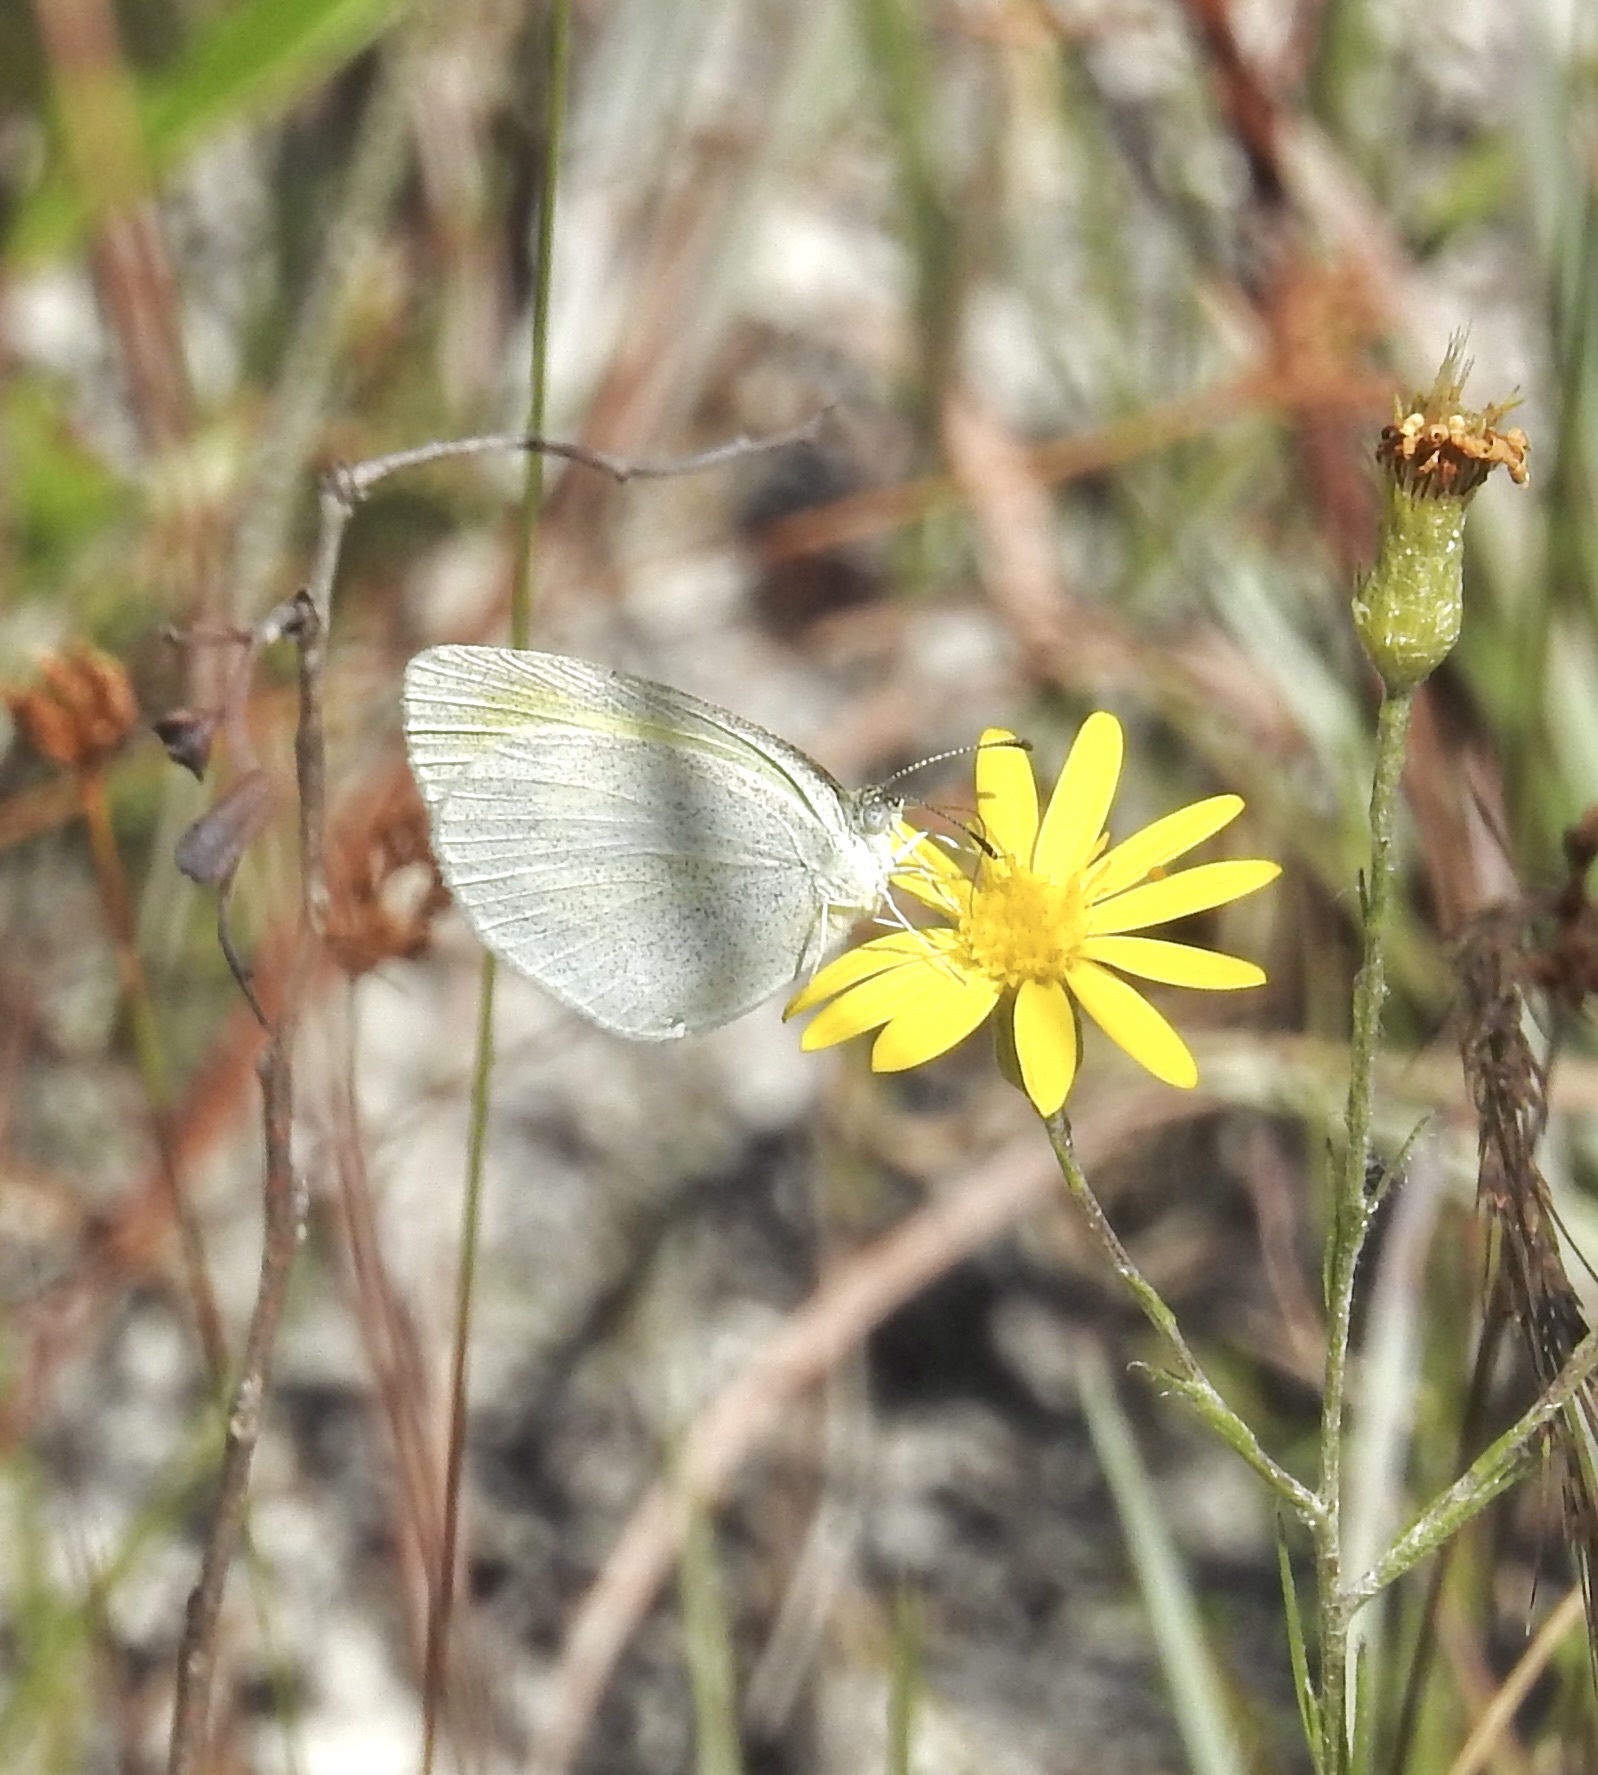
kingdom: Animalia
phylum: Arthropoda
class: Insecta
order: Lepidoptera
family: Pieridae
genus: Eurema
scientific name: Eurema daira
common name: Barred sulphur
